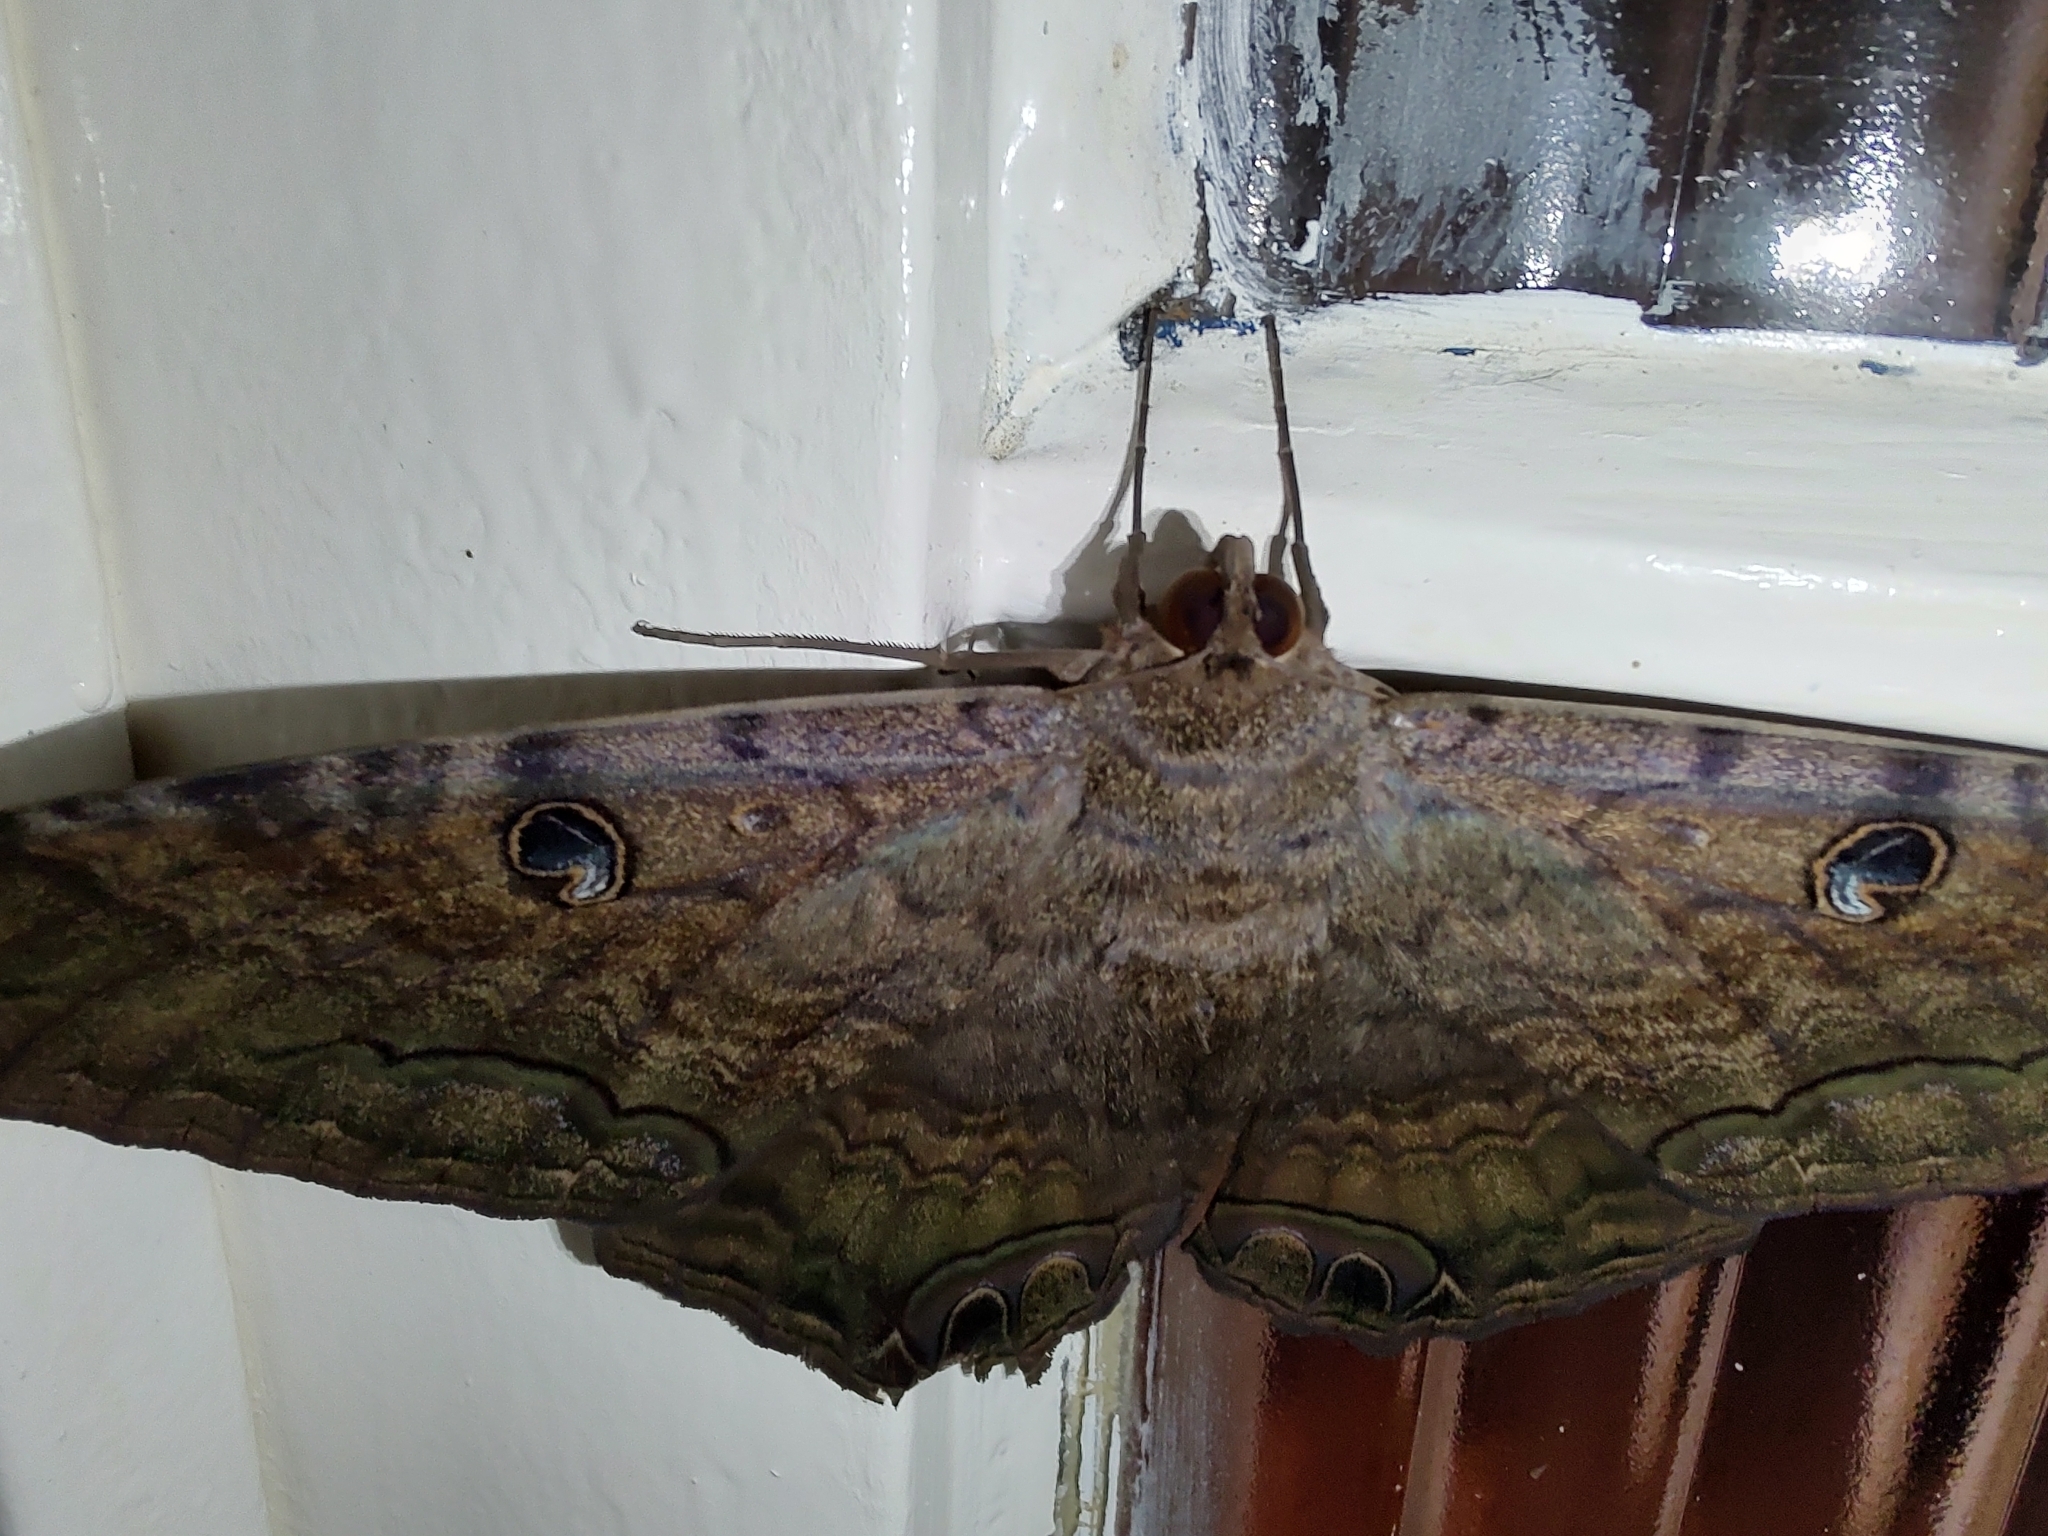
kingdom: Animalia
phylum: Arthropoda
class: Insecta
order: Lepidoptera
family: Erebidae
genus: Ascalapha
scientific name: Ascalapha odorata
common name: Black witch
